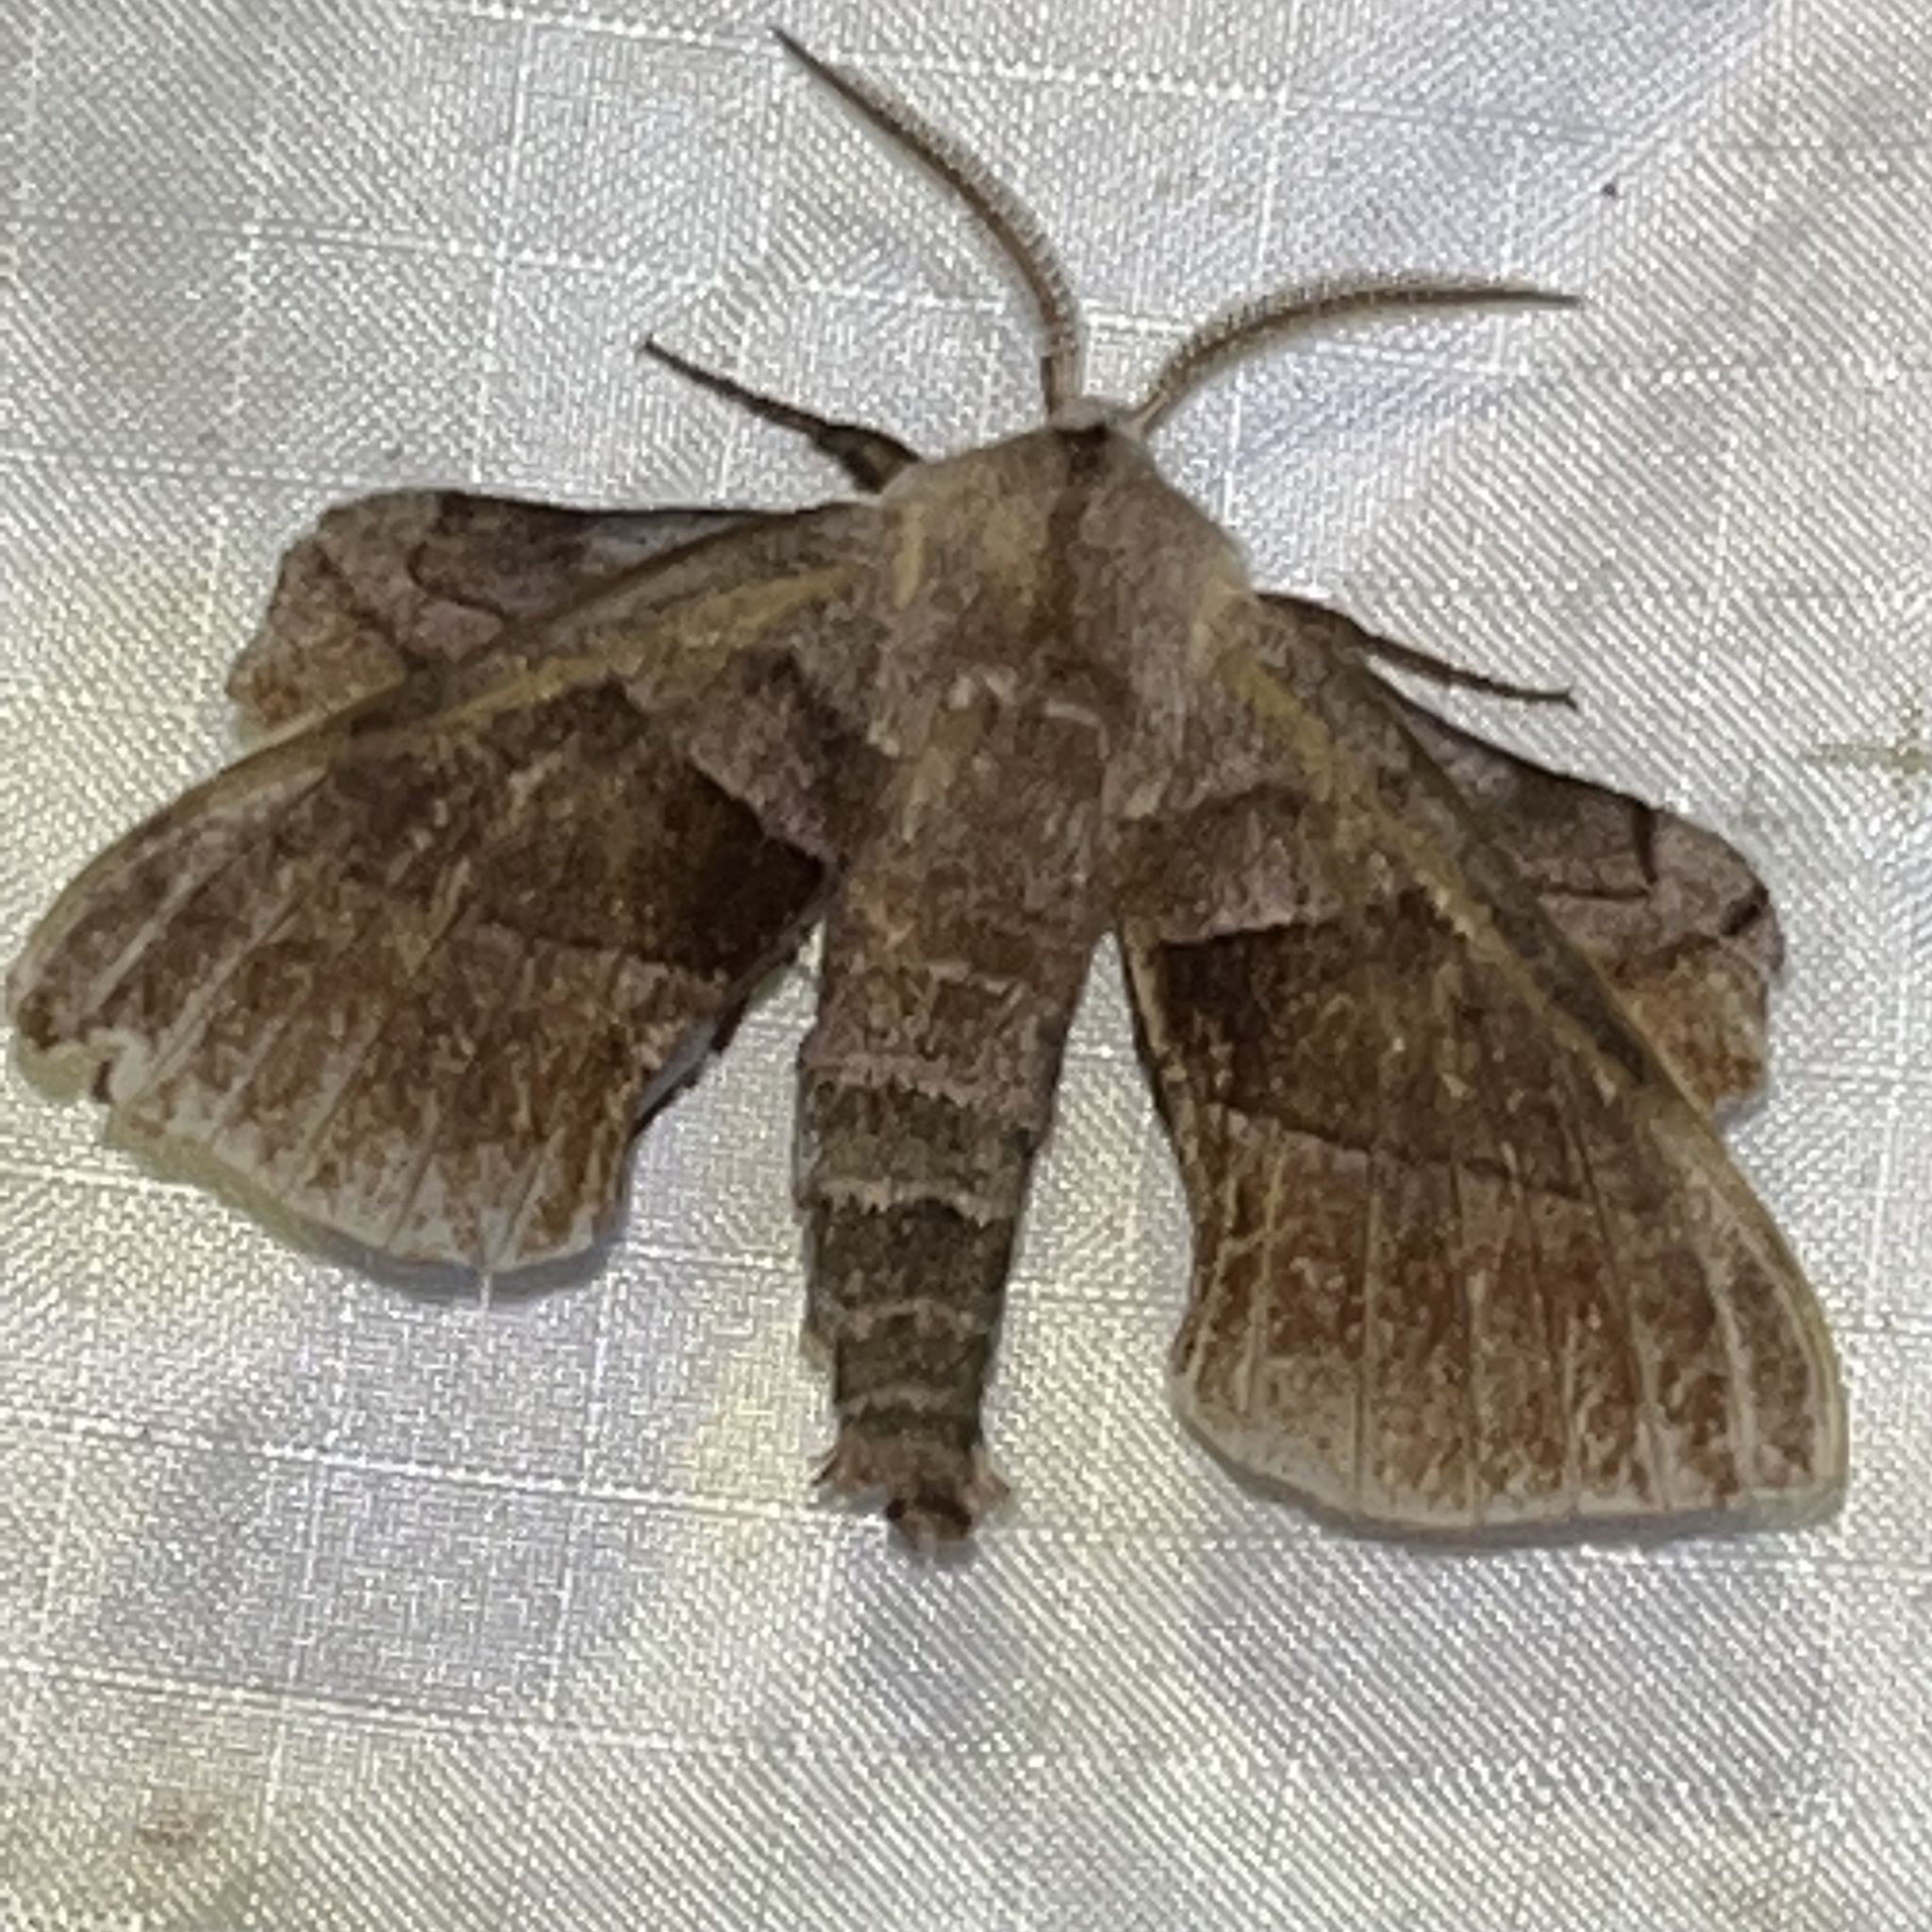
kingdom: Animalia
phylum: Arthropoda
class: Insecta
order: Lepidoptera
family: Sphingidae
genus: Amorpha
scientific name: Amorpha juglandis
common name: Walnut sphinx
